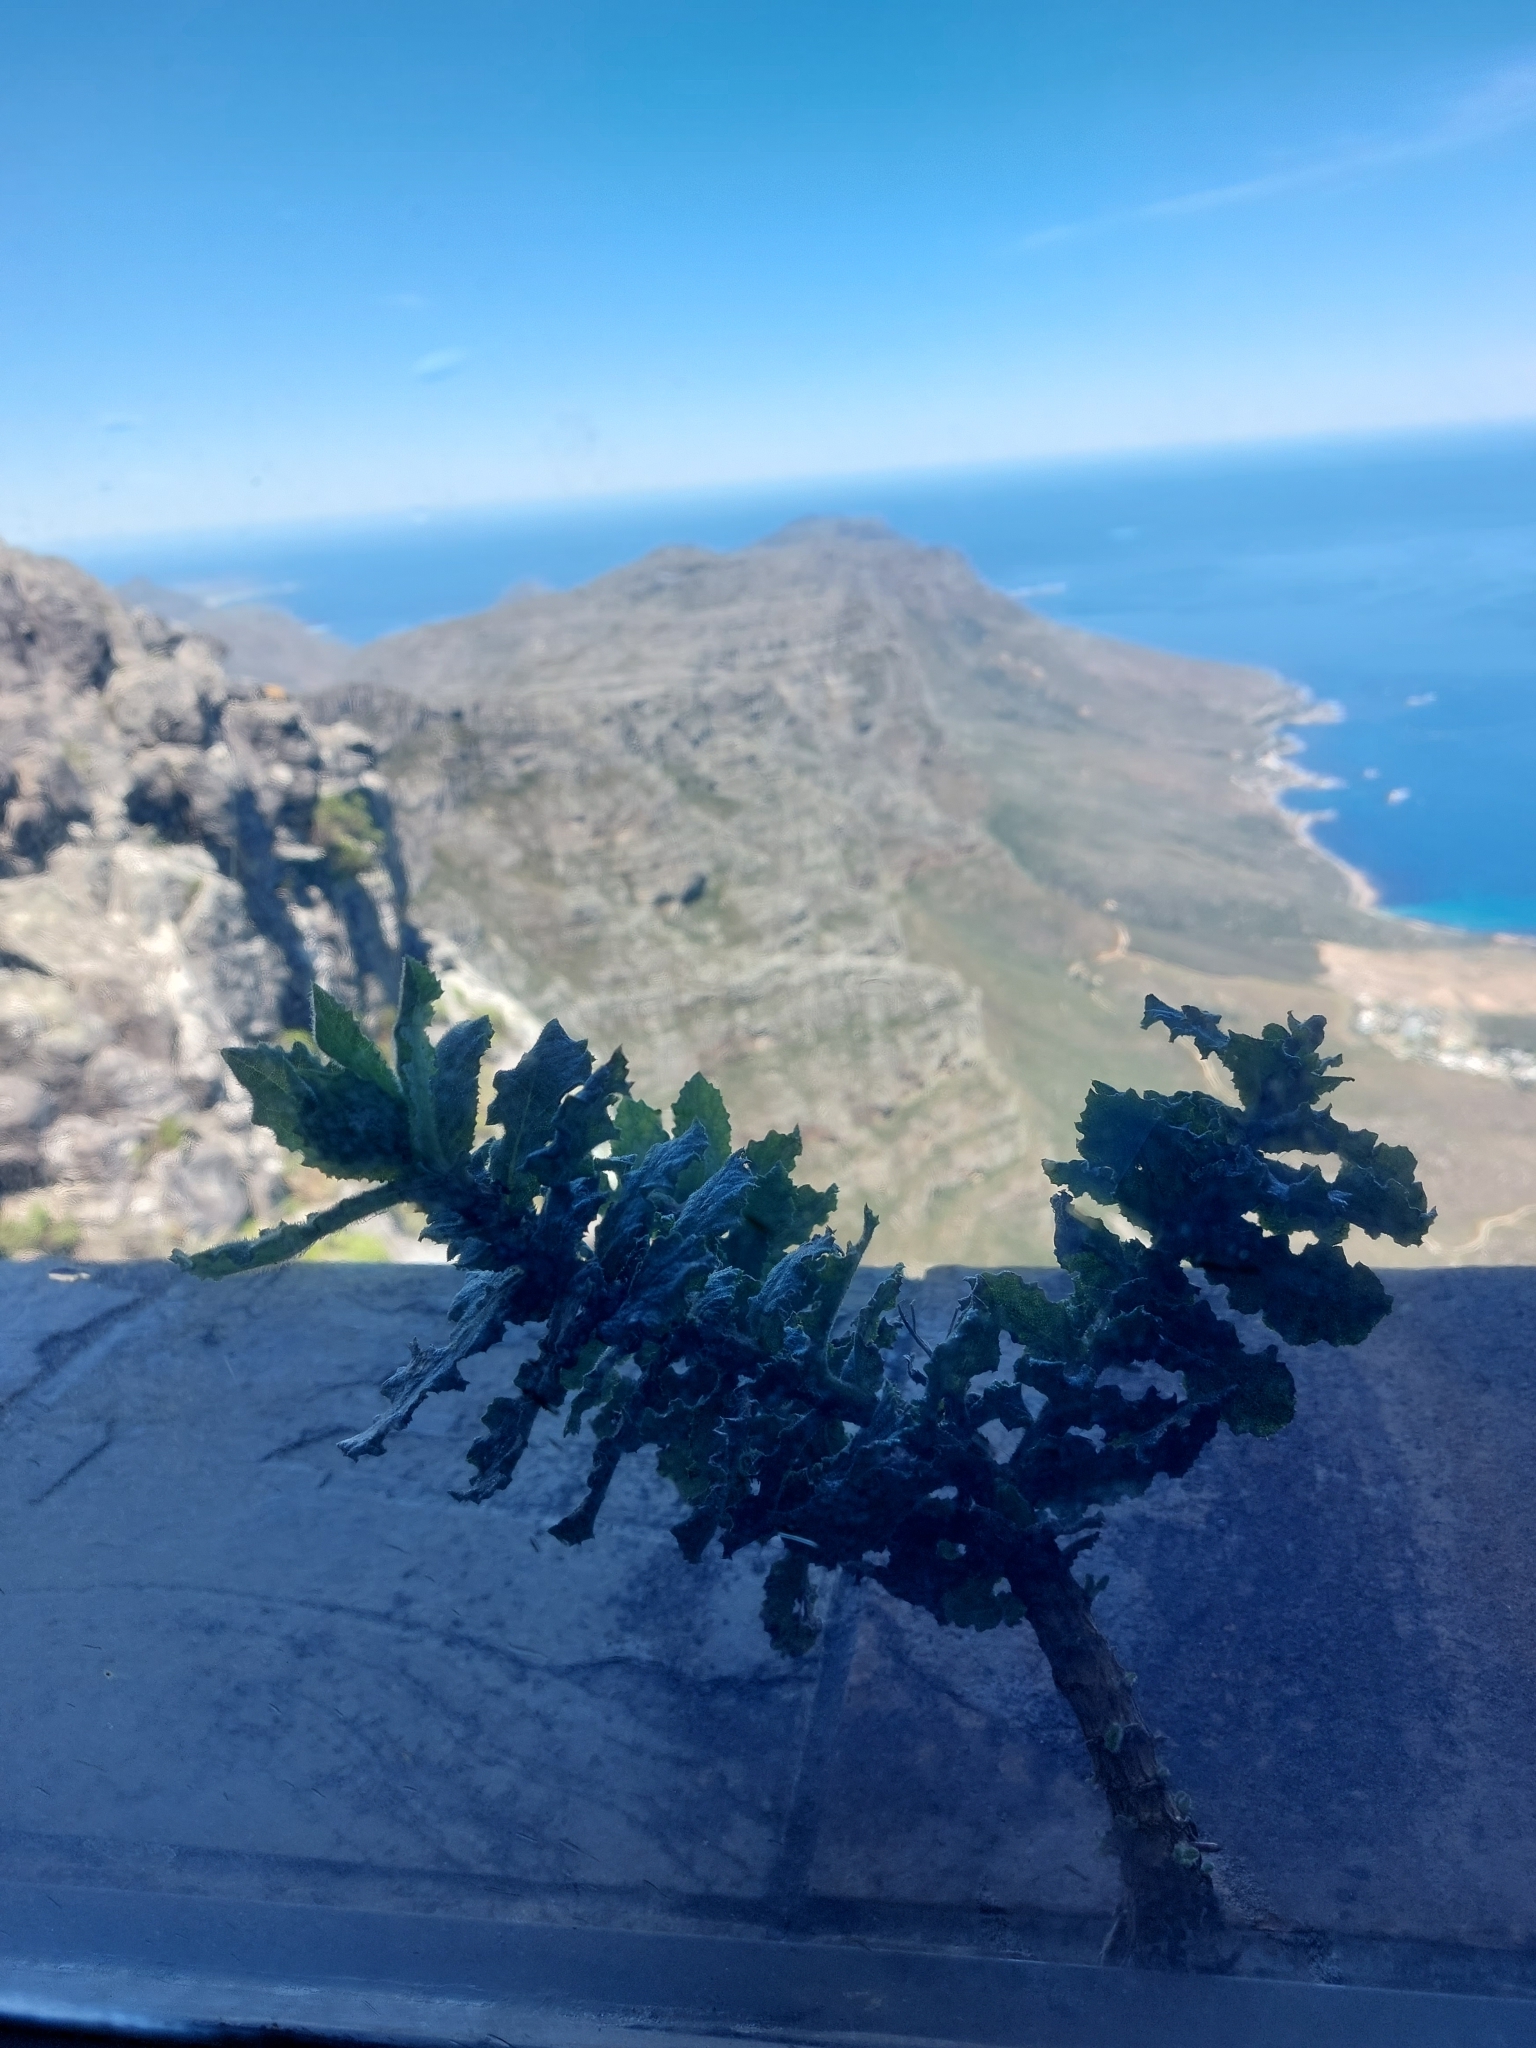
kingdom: Plantae
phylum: Tracheophyta
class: Magnoliopsida
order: Asterales
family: Asteraceae
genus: Senecio
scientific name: Senecio rigidus
